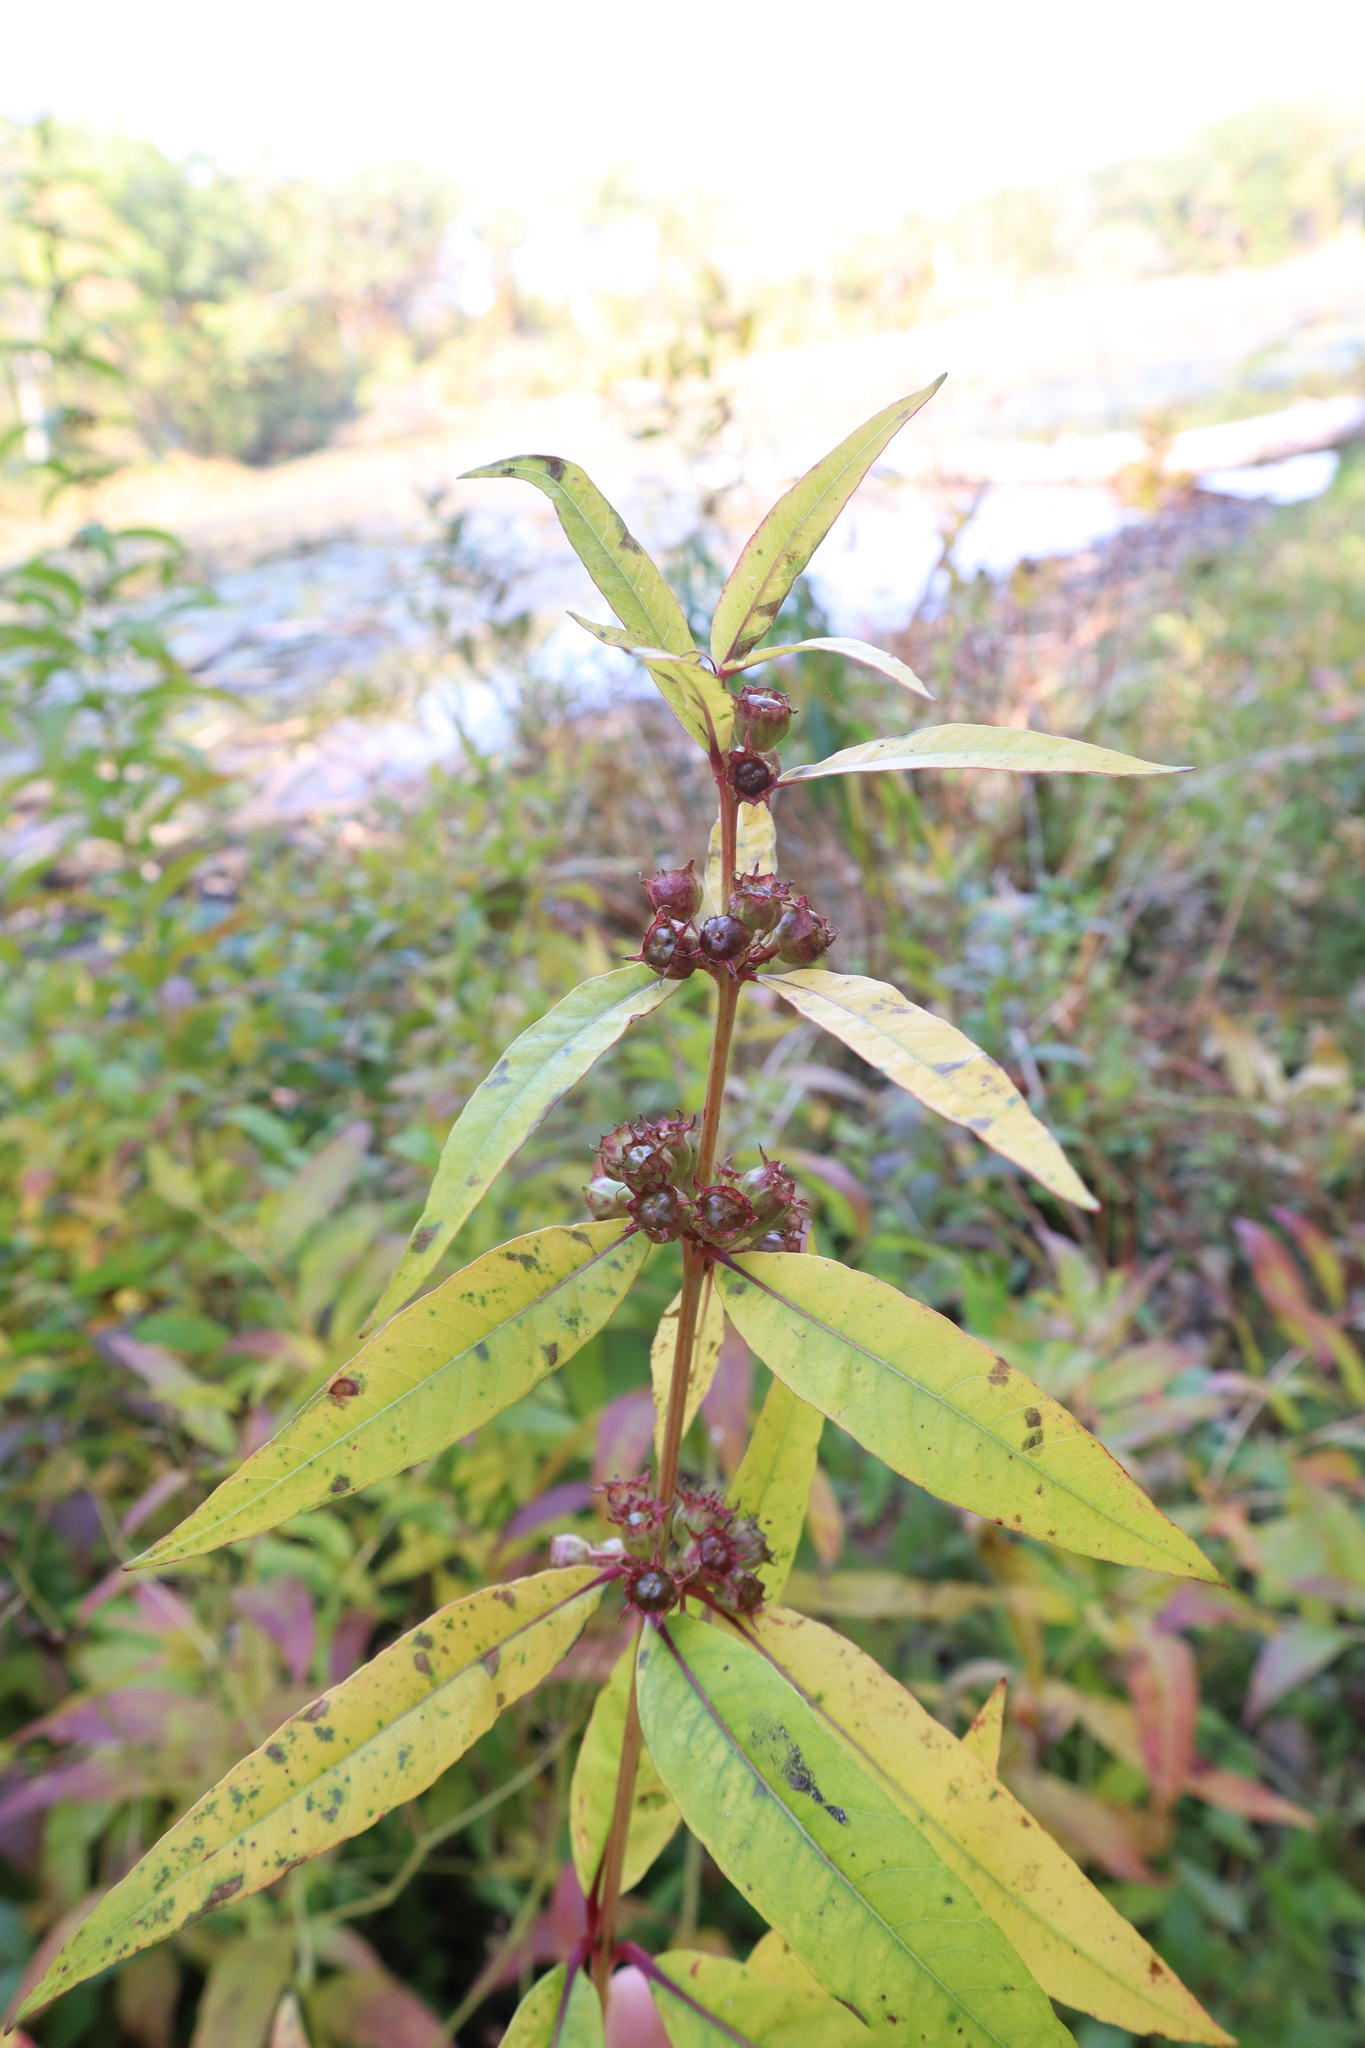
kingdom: Plantae
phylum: Tracheophyta
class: Magnoliopsida
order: Myrtales
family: Lythraceae
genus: Decodon
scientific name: Decodon verticillatus
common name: Hairy swamp loosestrife
